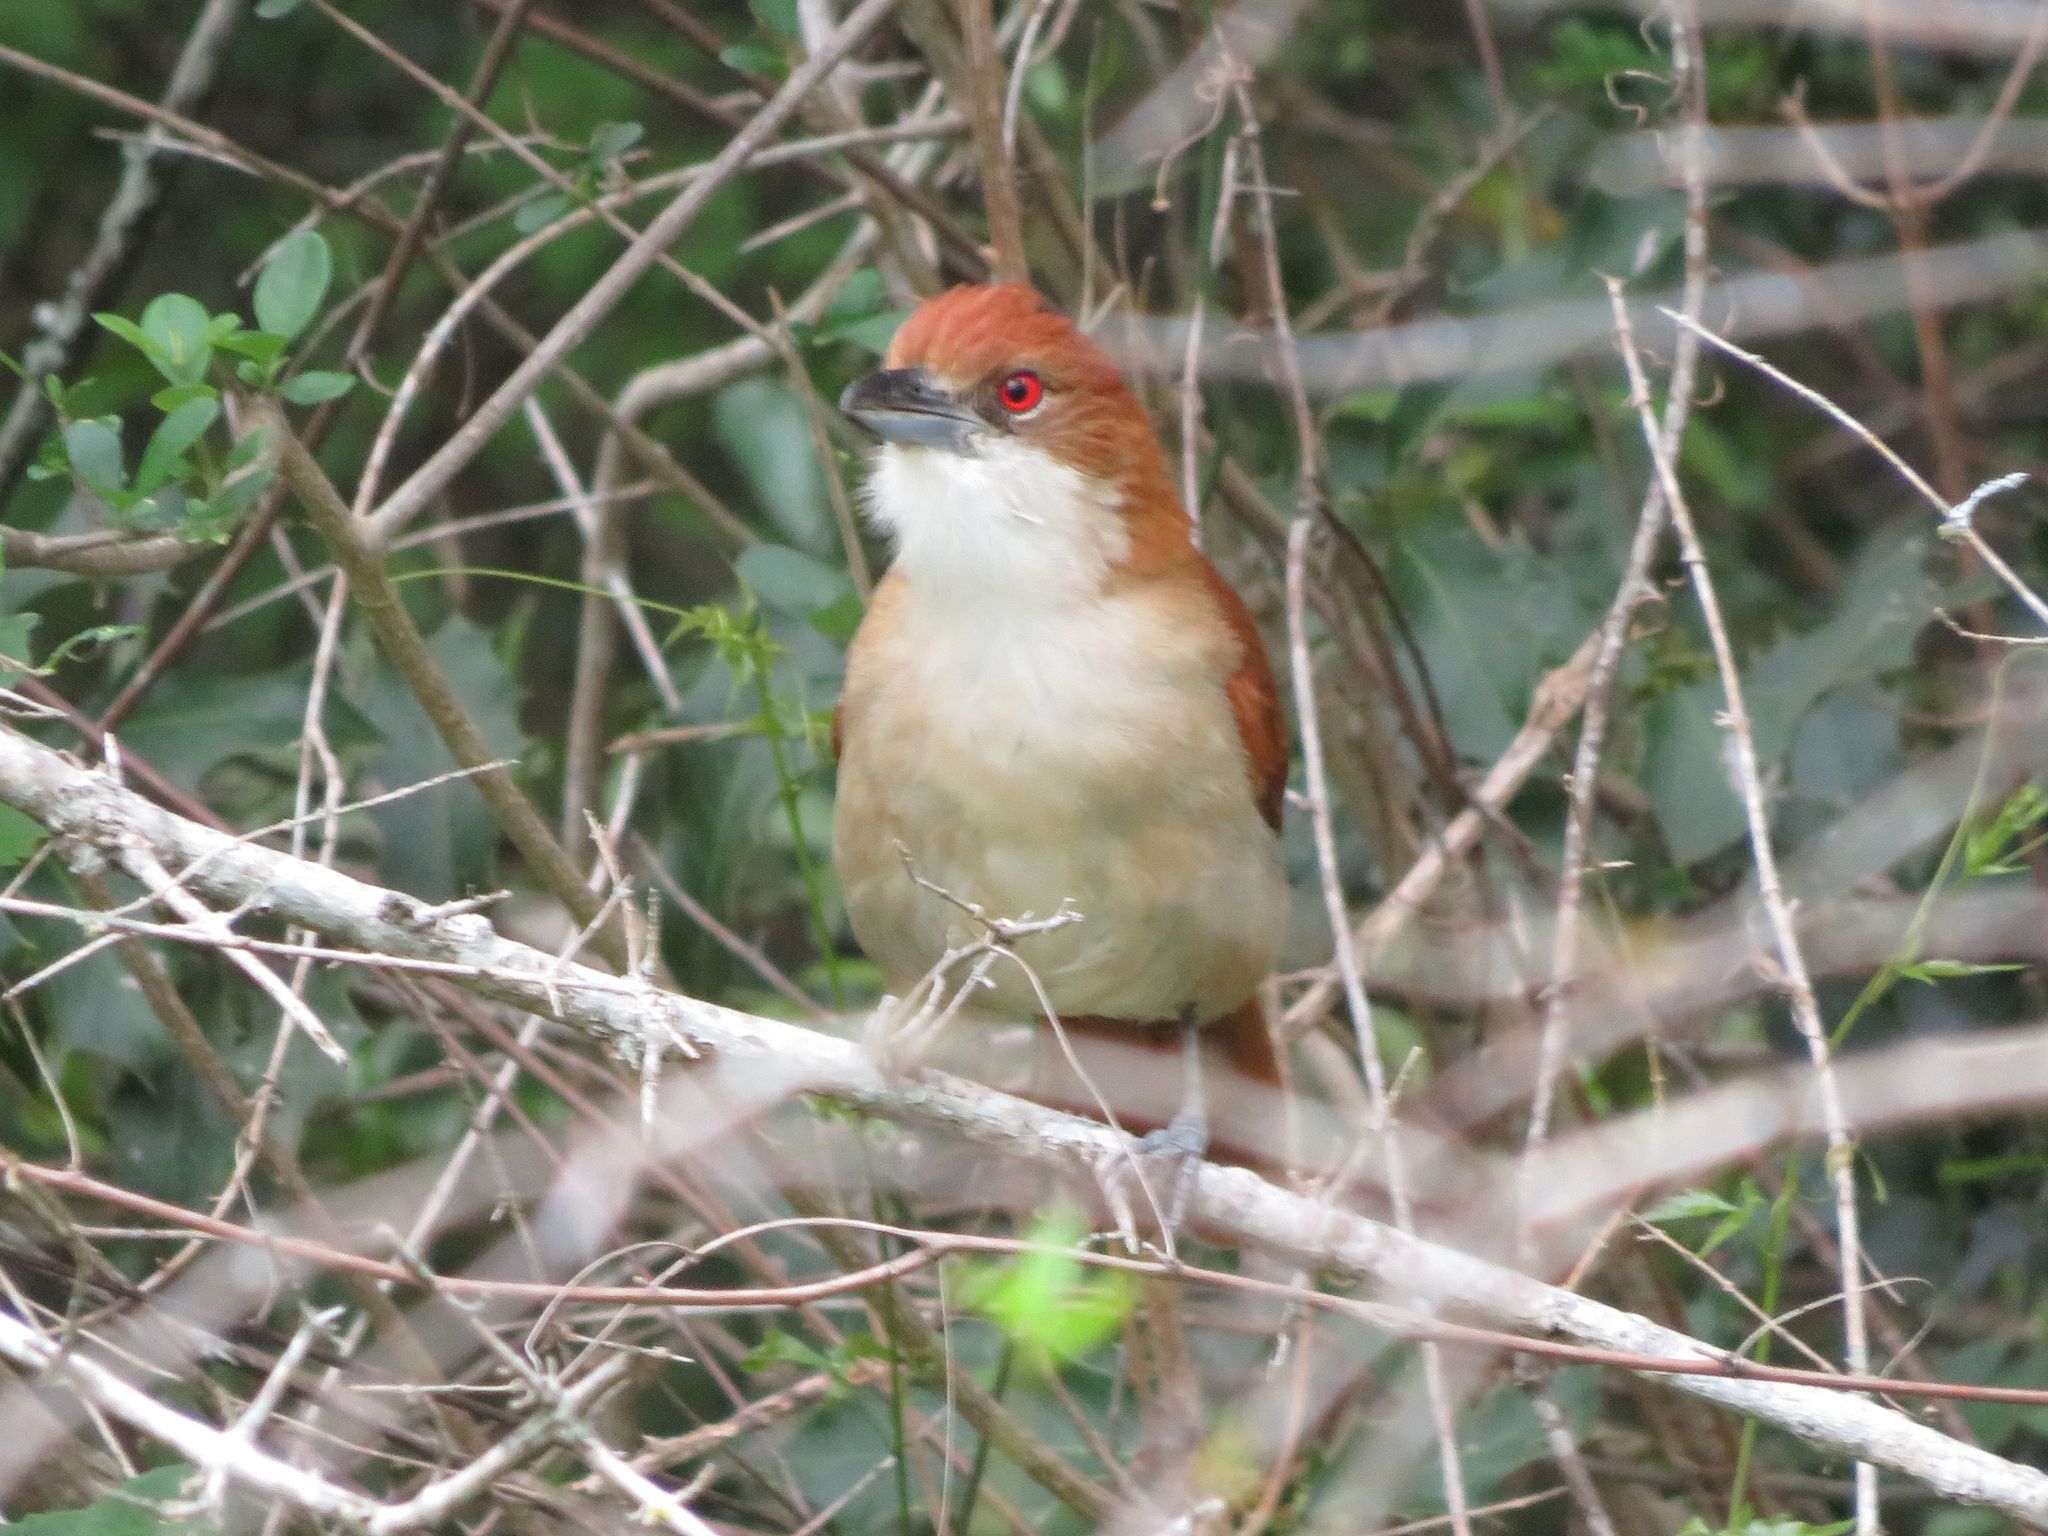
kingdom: Animalia
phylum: Chordata
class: Aves
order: Passeriformes
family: Thamnophilidae
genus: Taraba
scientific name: Taraba major
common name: Great antshrike
